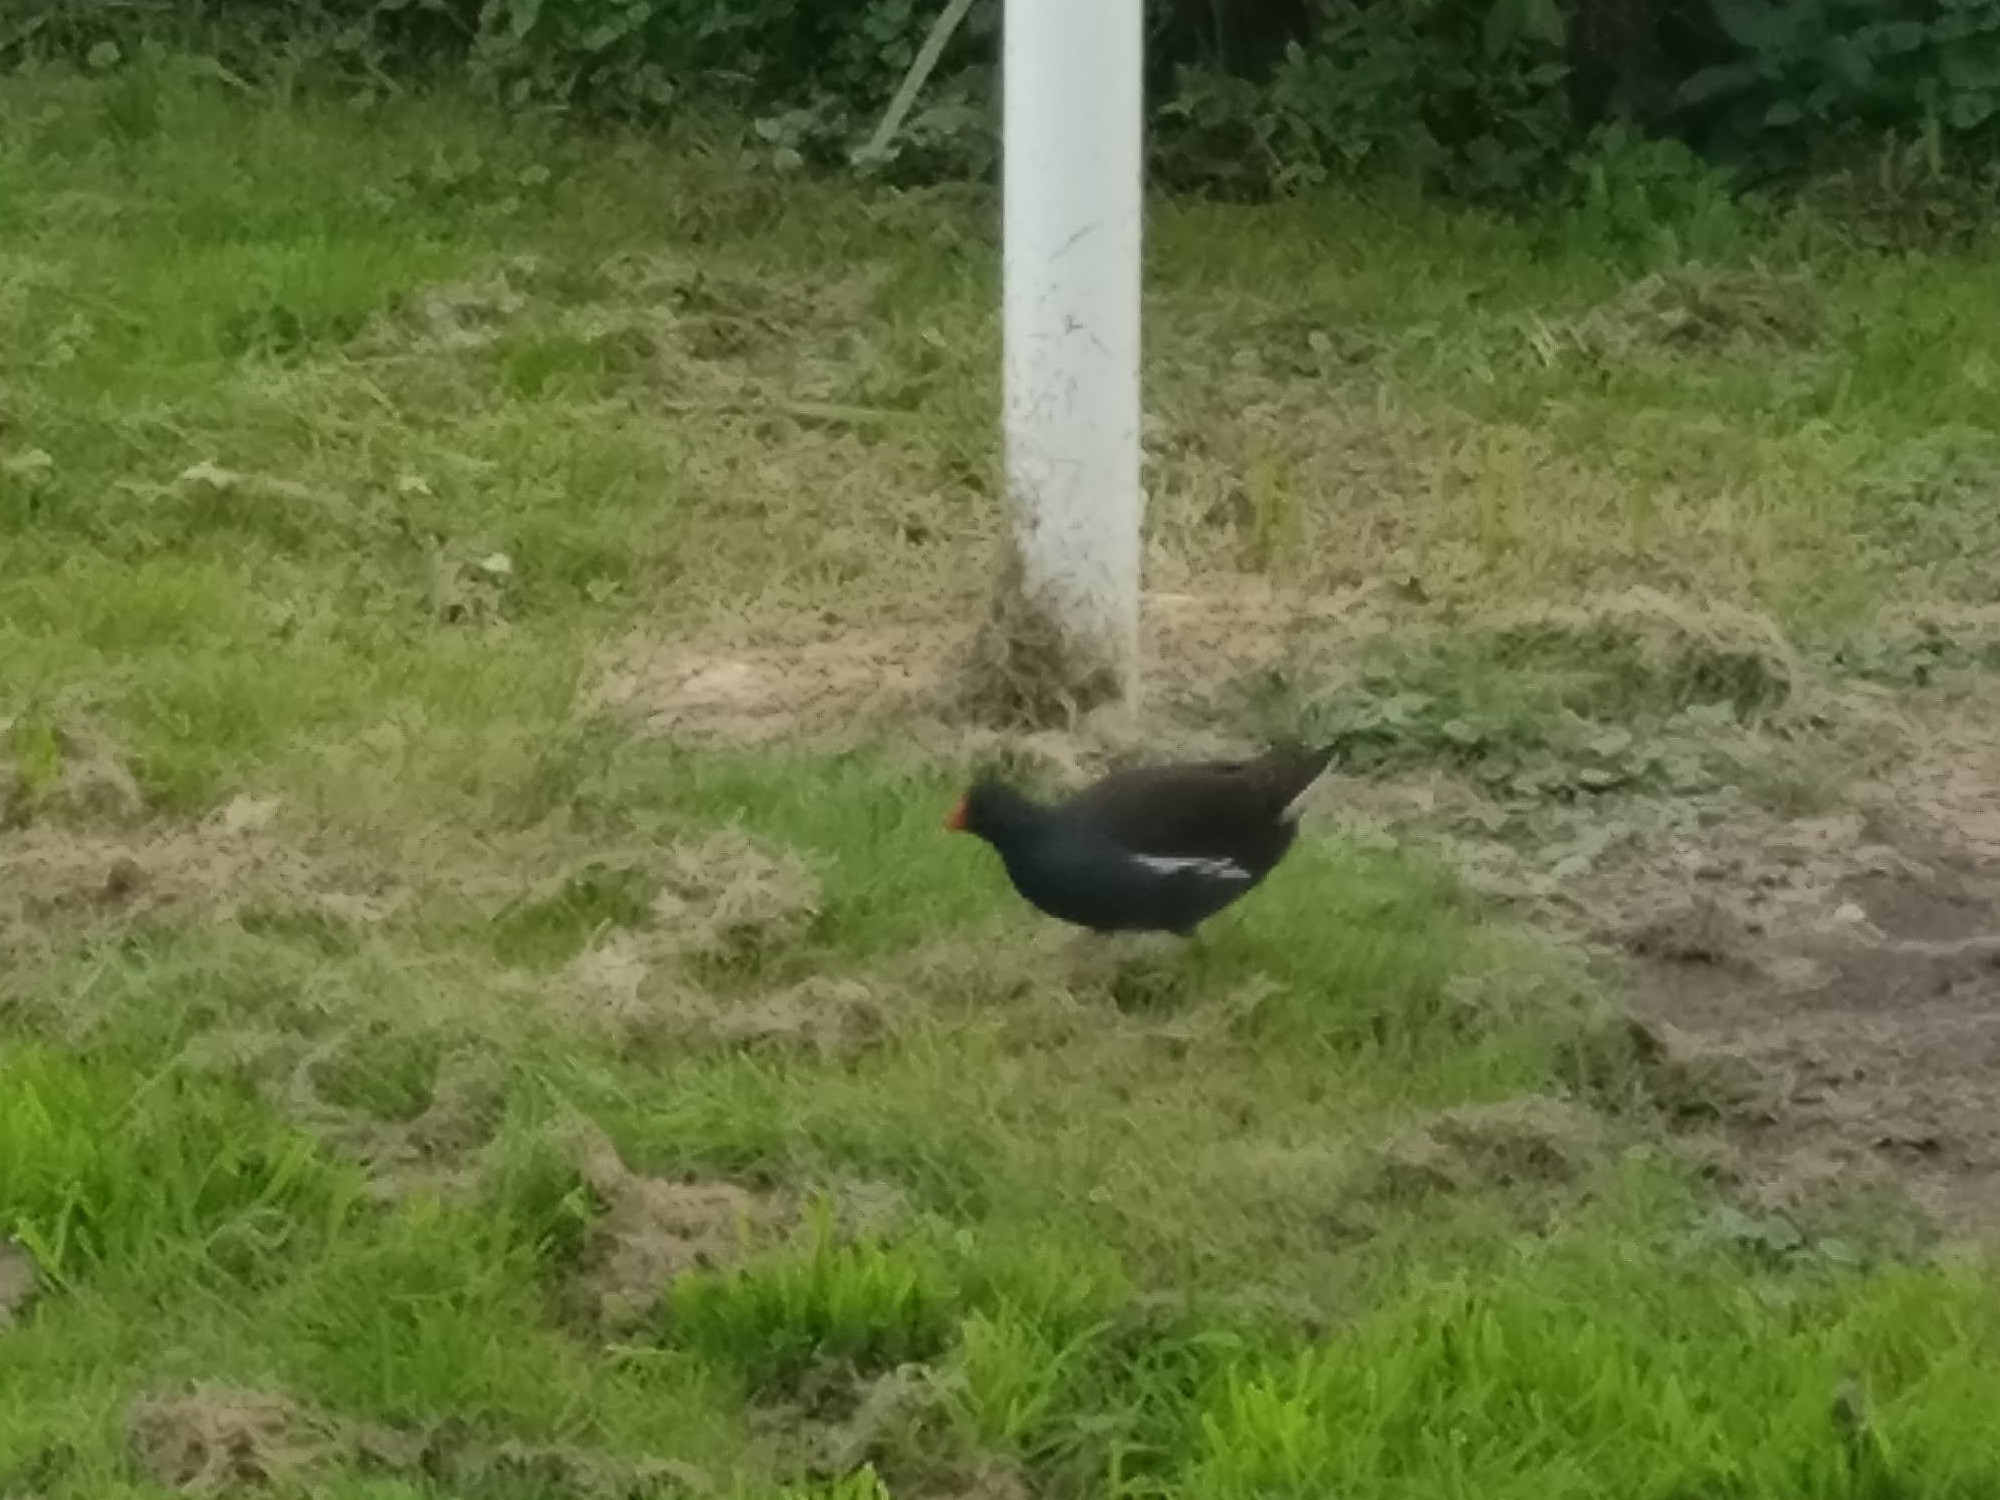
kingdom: Animalia
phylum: Chordata
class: Aves
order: Gruiformes
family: Rallidae
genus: Gallinula
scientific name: Gallinula chloropus
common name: Common moorhen
